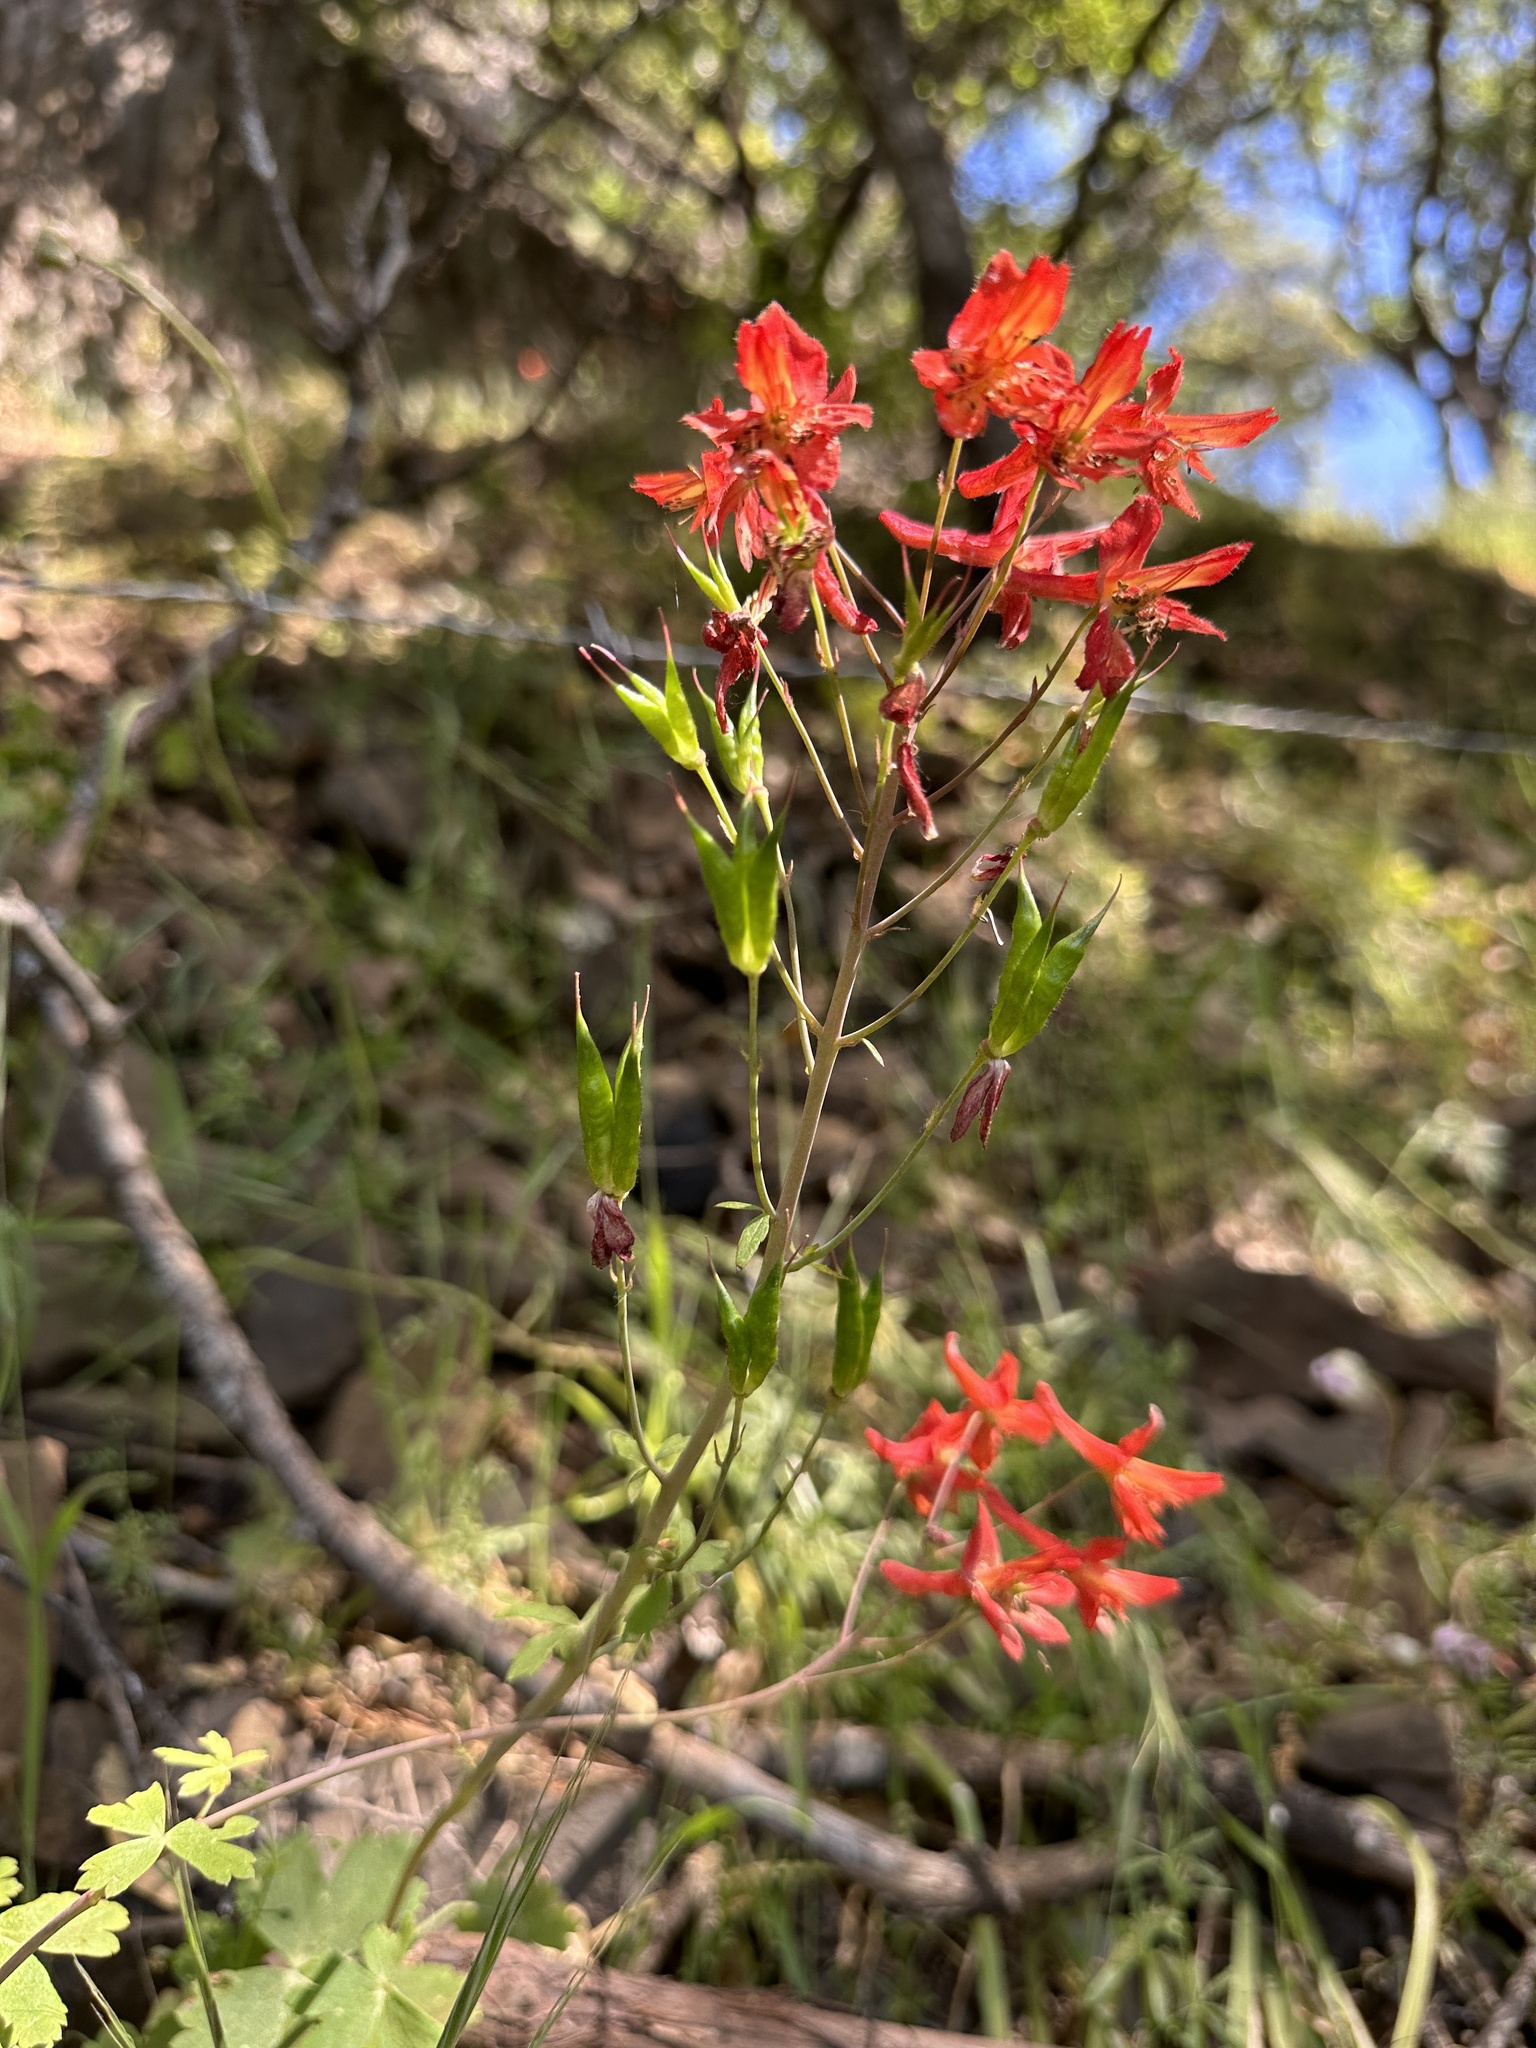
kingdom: Plantae
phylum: Tracheophyta
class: Magnoliopsida
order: Ranunculales
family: Ranunculaceae
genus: Delphinium
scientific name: Delphinium nudicaule
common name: Red larkspur
